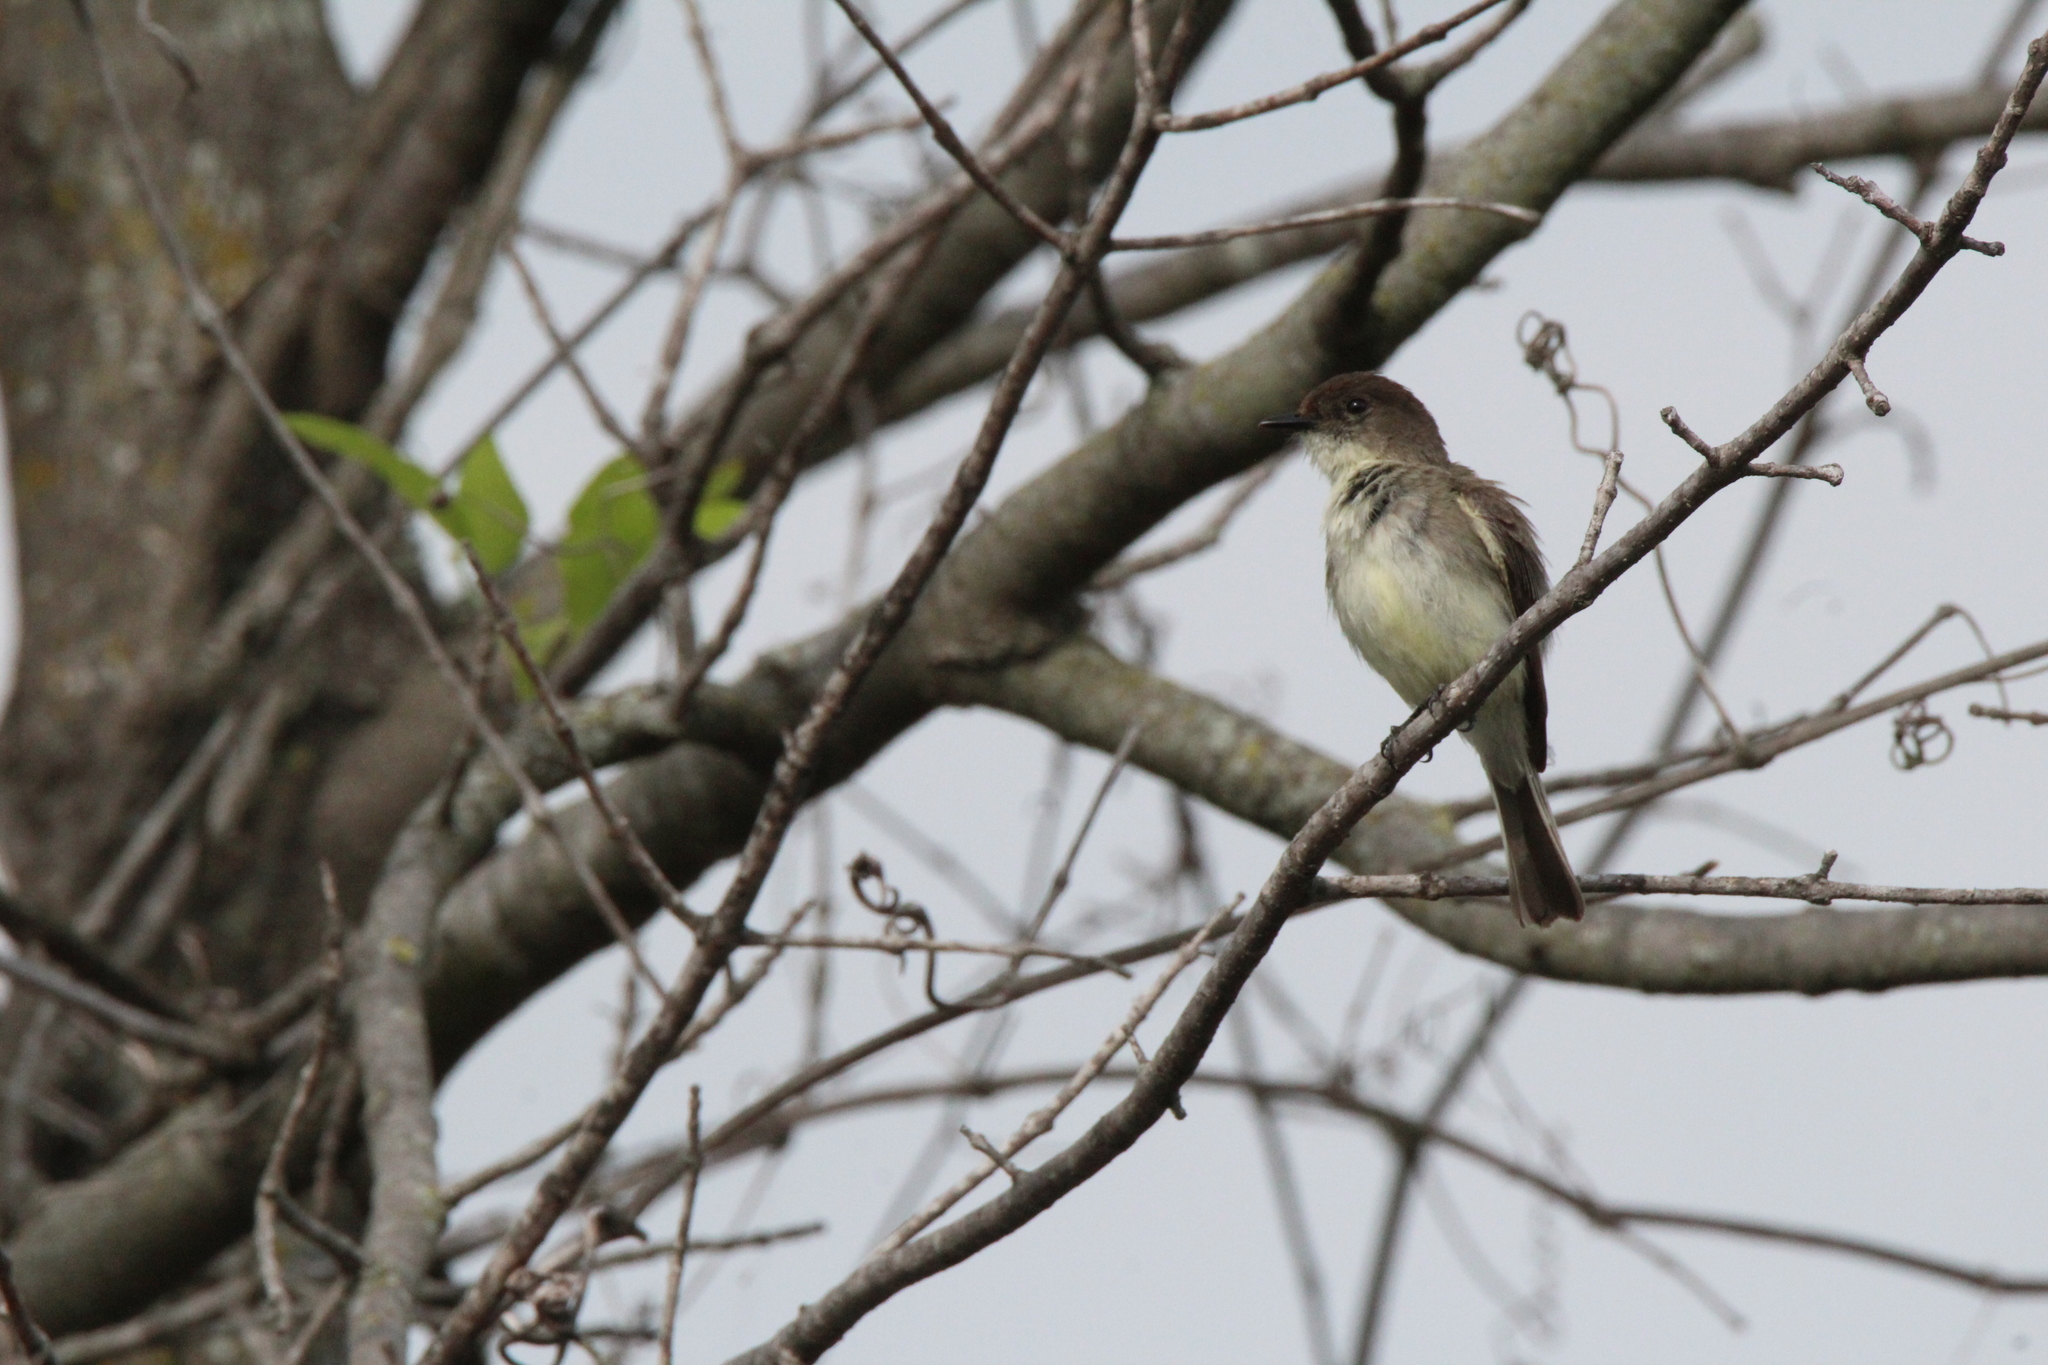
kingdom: Animalia
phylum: Chordata
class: Aves
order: Passeriformes
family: Tyrannidae
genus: Sayornis
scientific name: Sayornis phoebe
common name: Eastern phoebe
